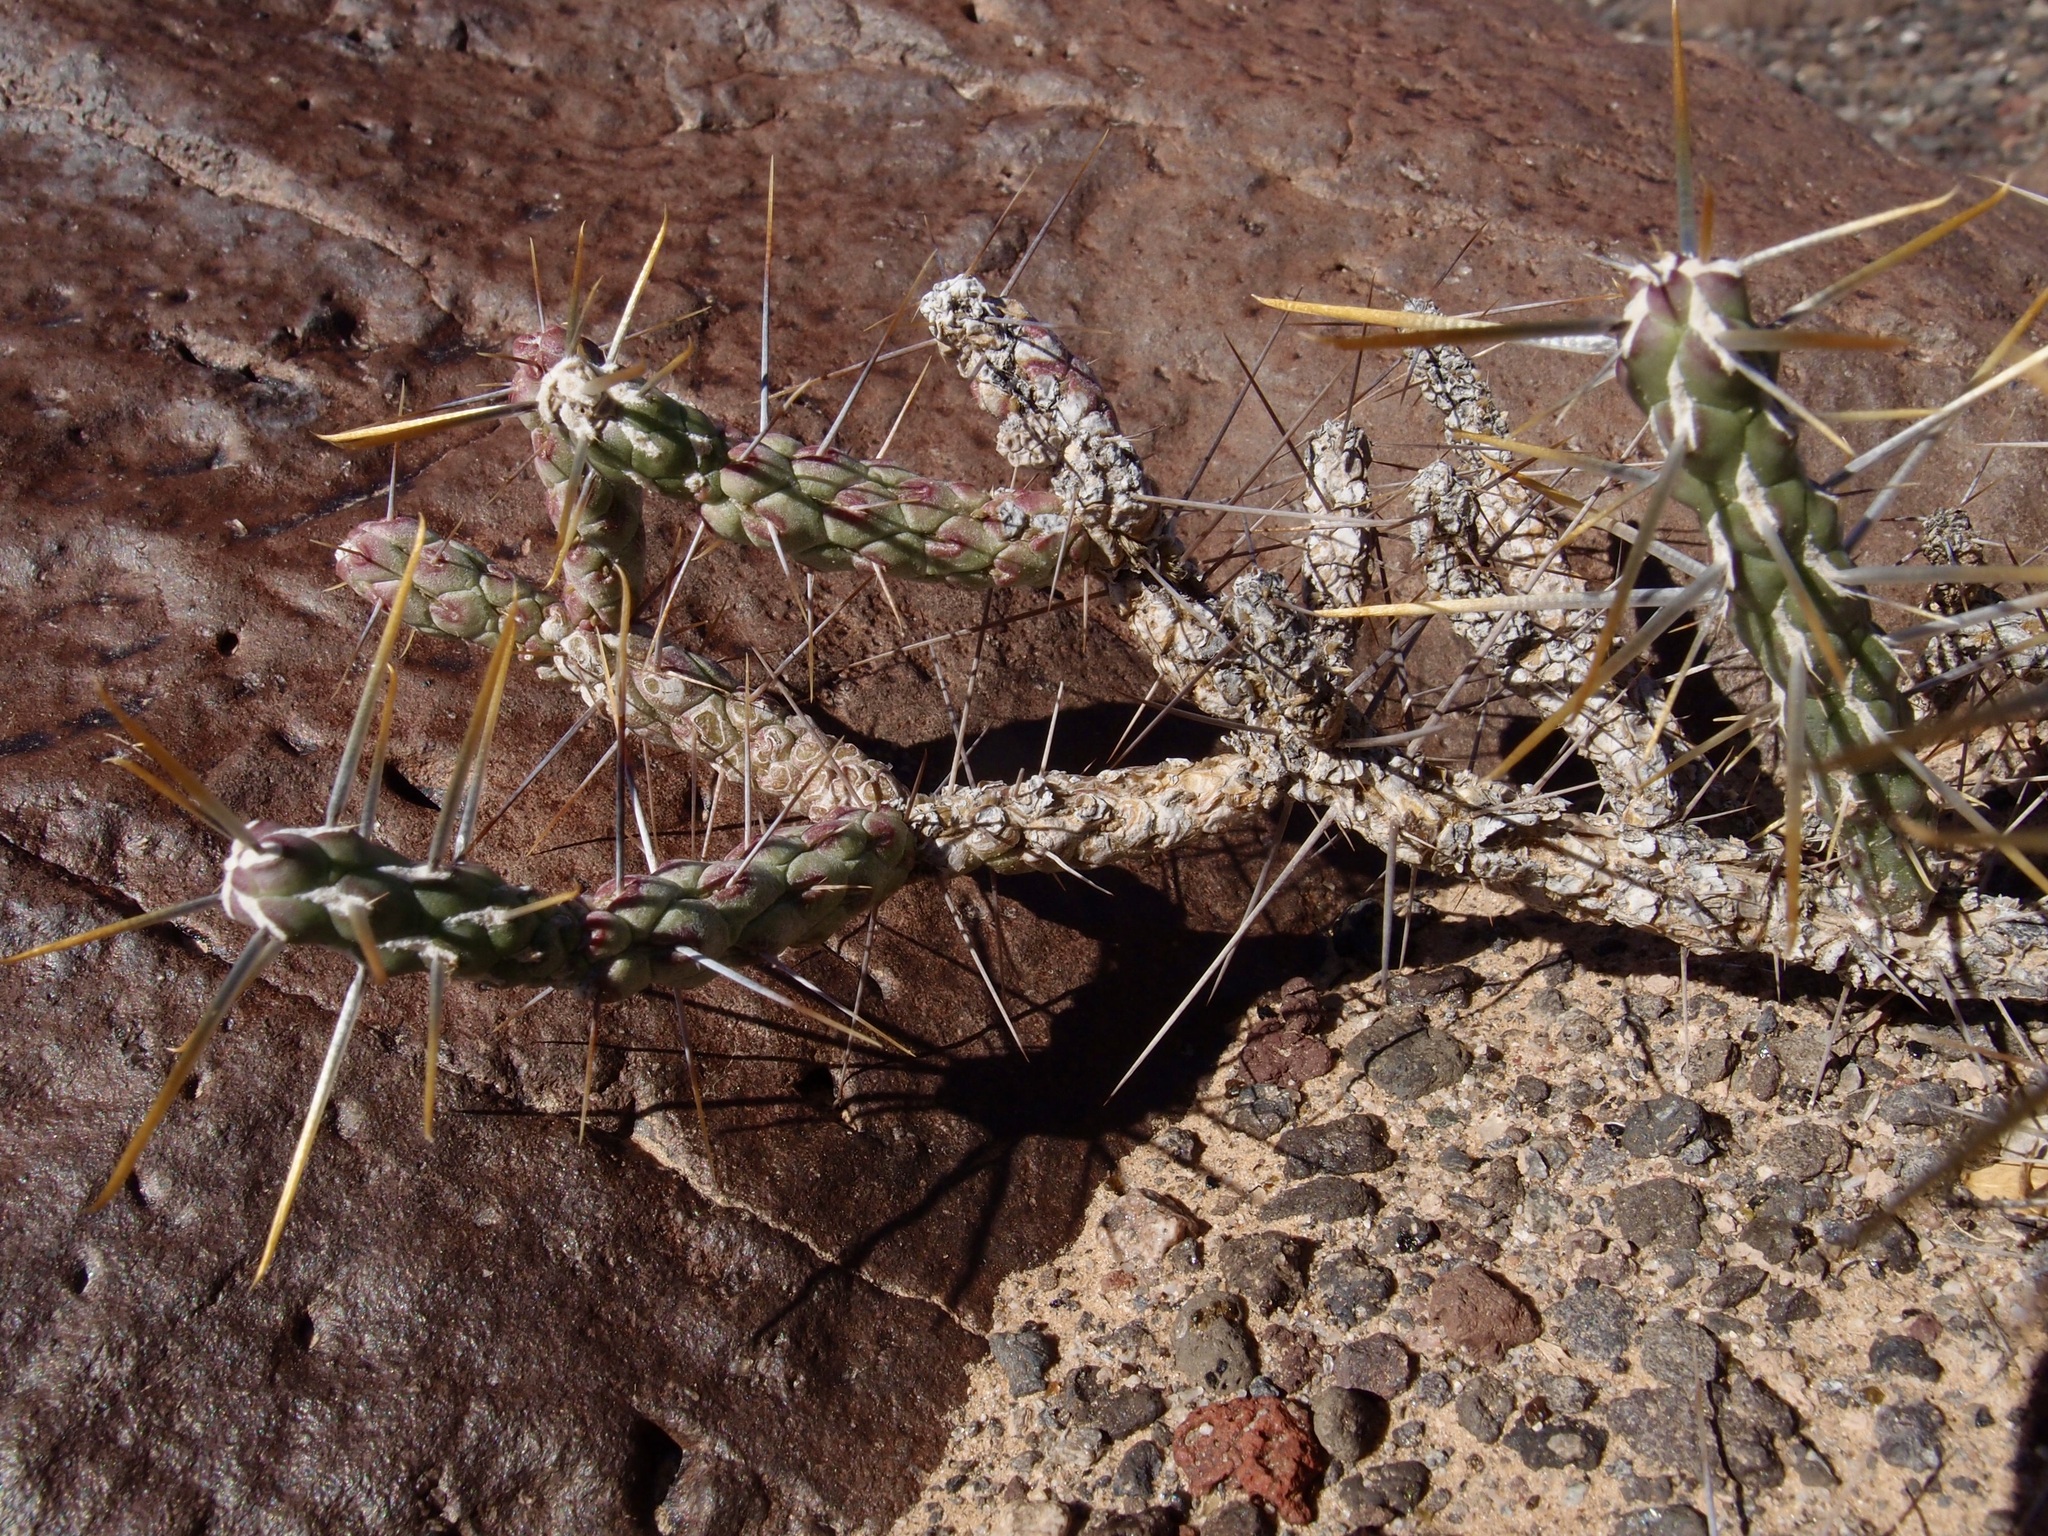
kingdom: Plantae
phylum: Tracheophyta
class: Magnoliopsida
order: Caryophyllales
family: Cactaceae
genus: Cylindropuntia
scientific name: Cylindropuntia ramosissima
